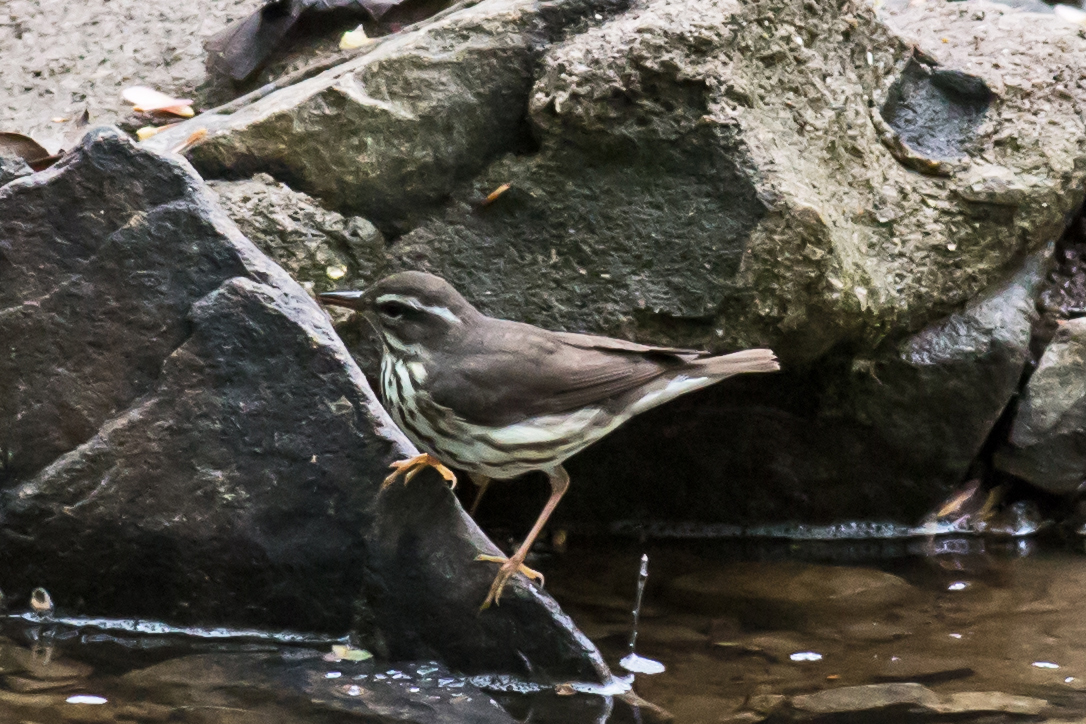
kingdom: Animalia
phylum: Chordata
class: Aves
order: Passeriformes
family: Parulidae
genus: Parkesia
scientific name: Parkesia motacilla
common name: Louisiana waterthrush
